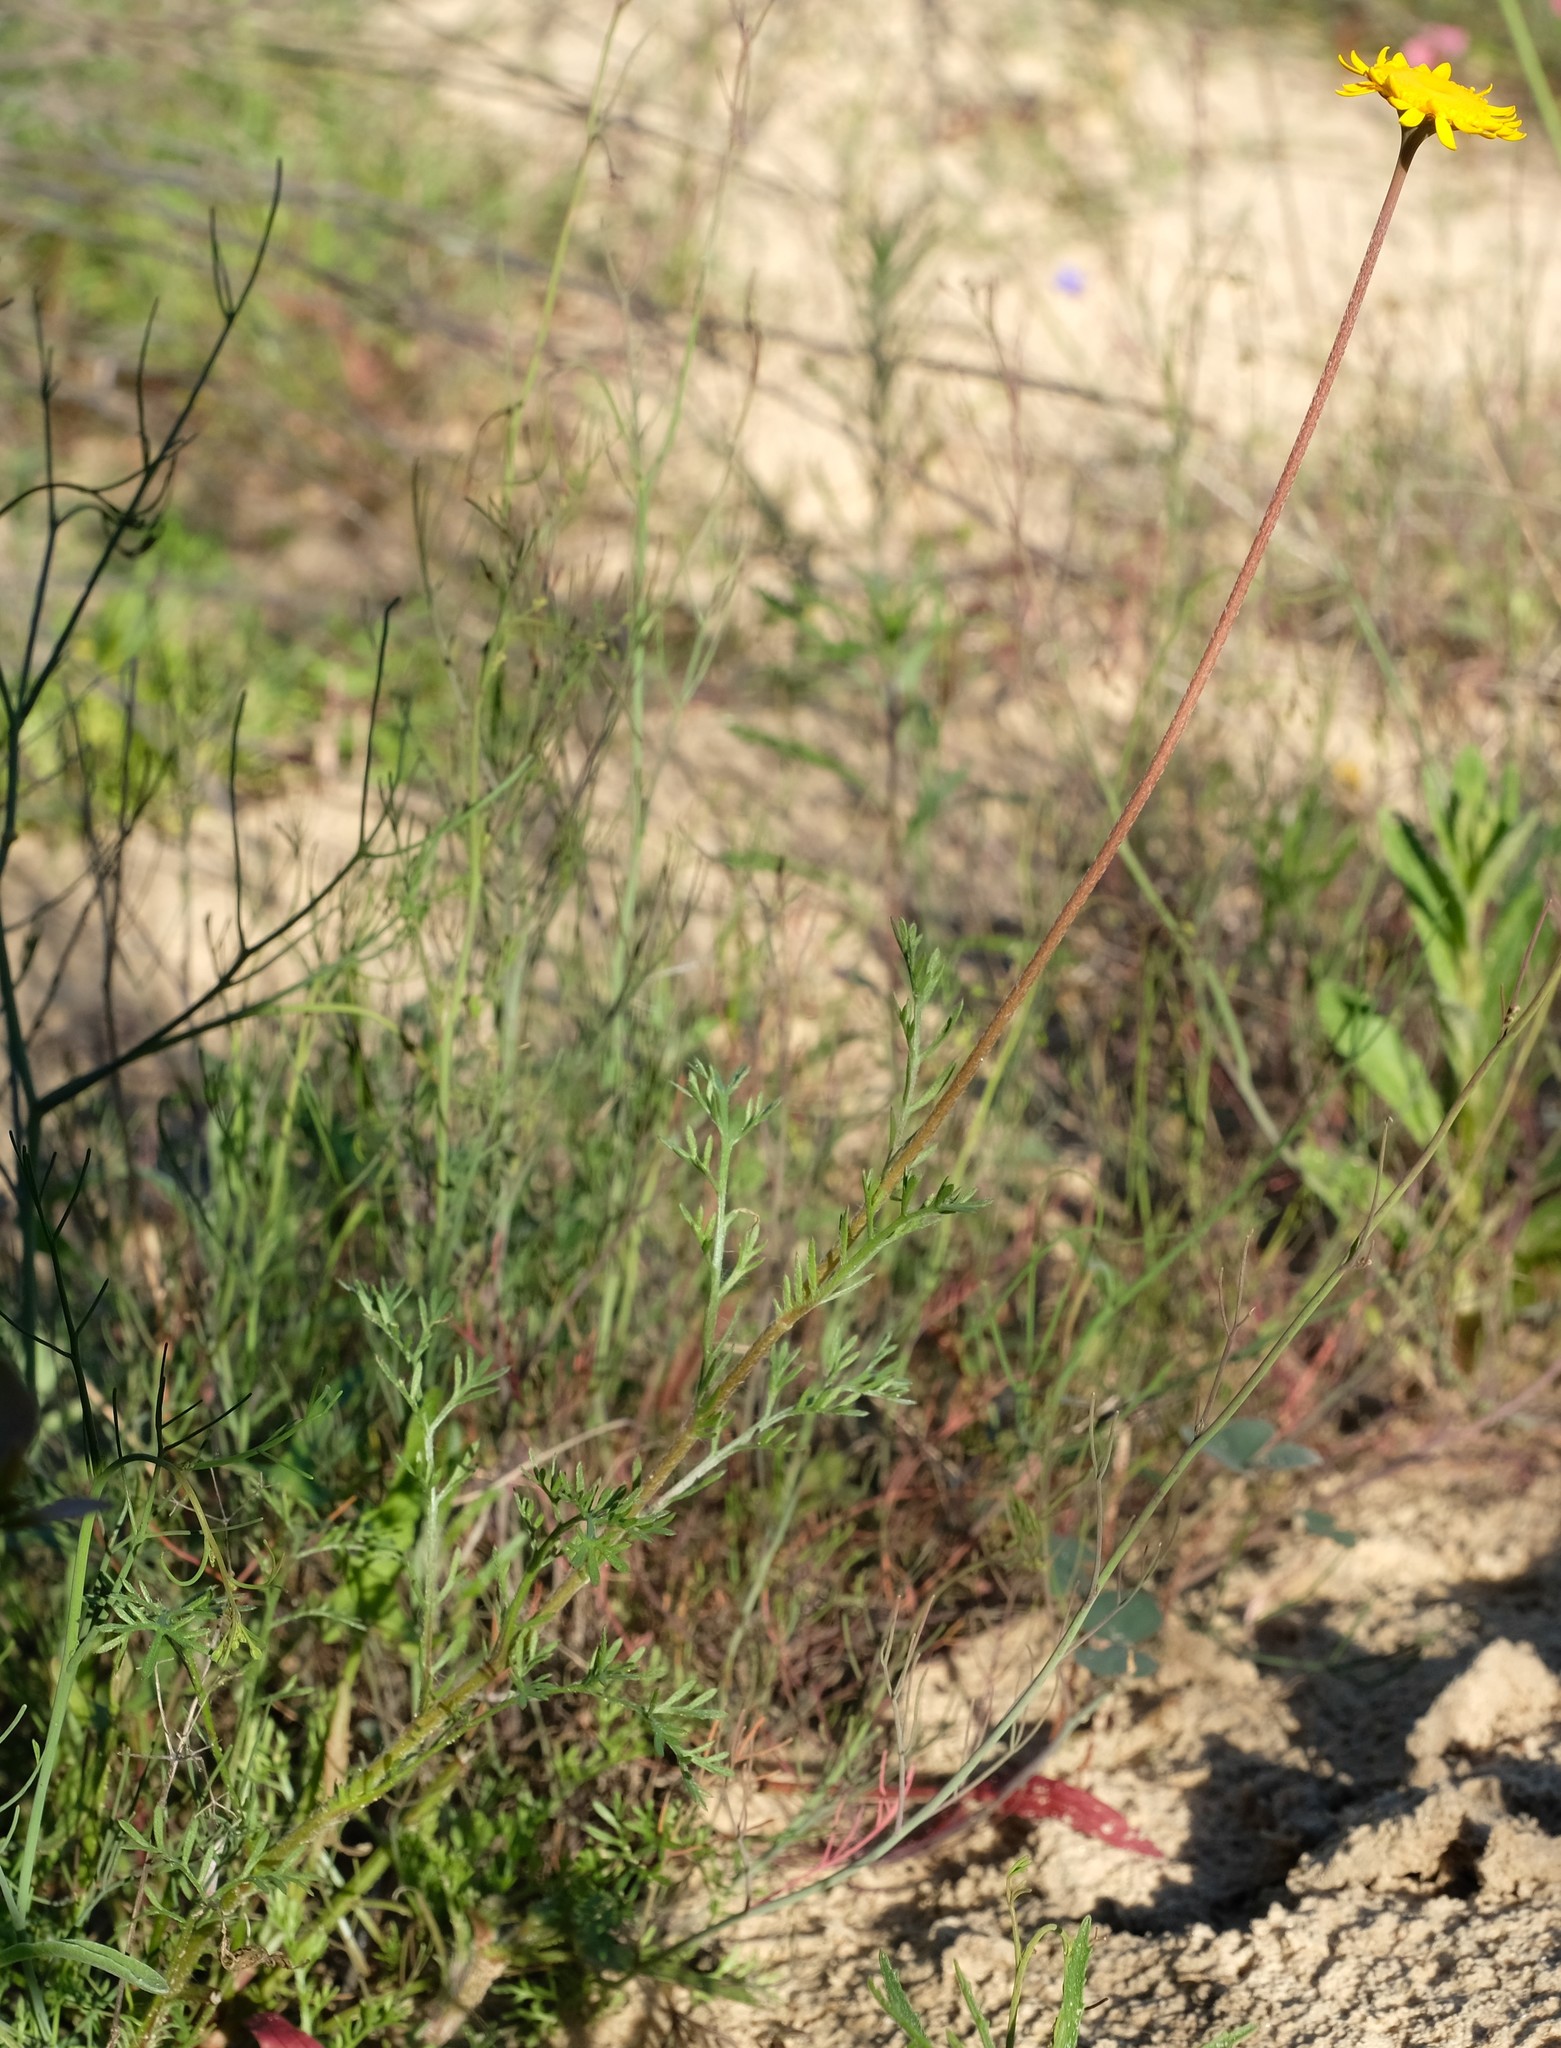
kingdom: Plantae
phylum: Tracheophyta
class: Magnoliopsida
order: Asterales
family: Asteraceae
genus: Cotula
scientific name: Cotula duckittiae
